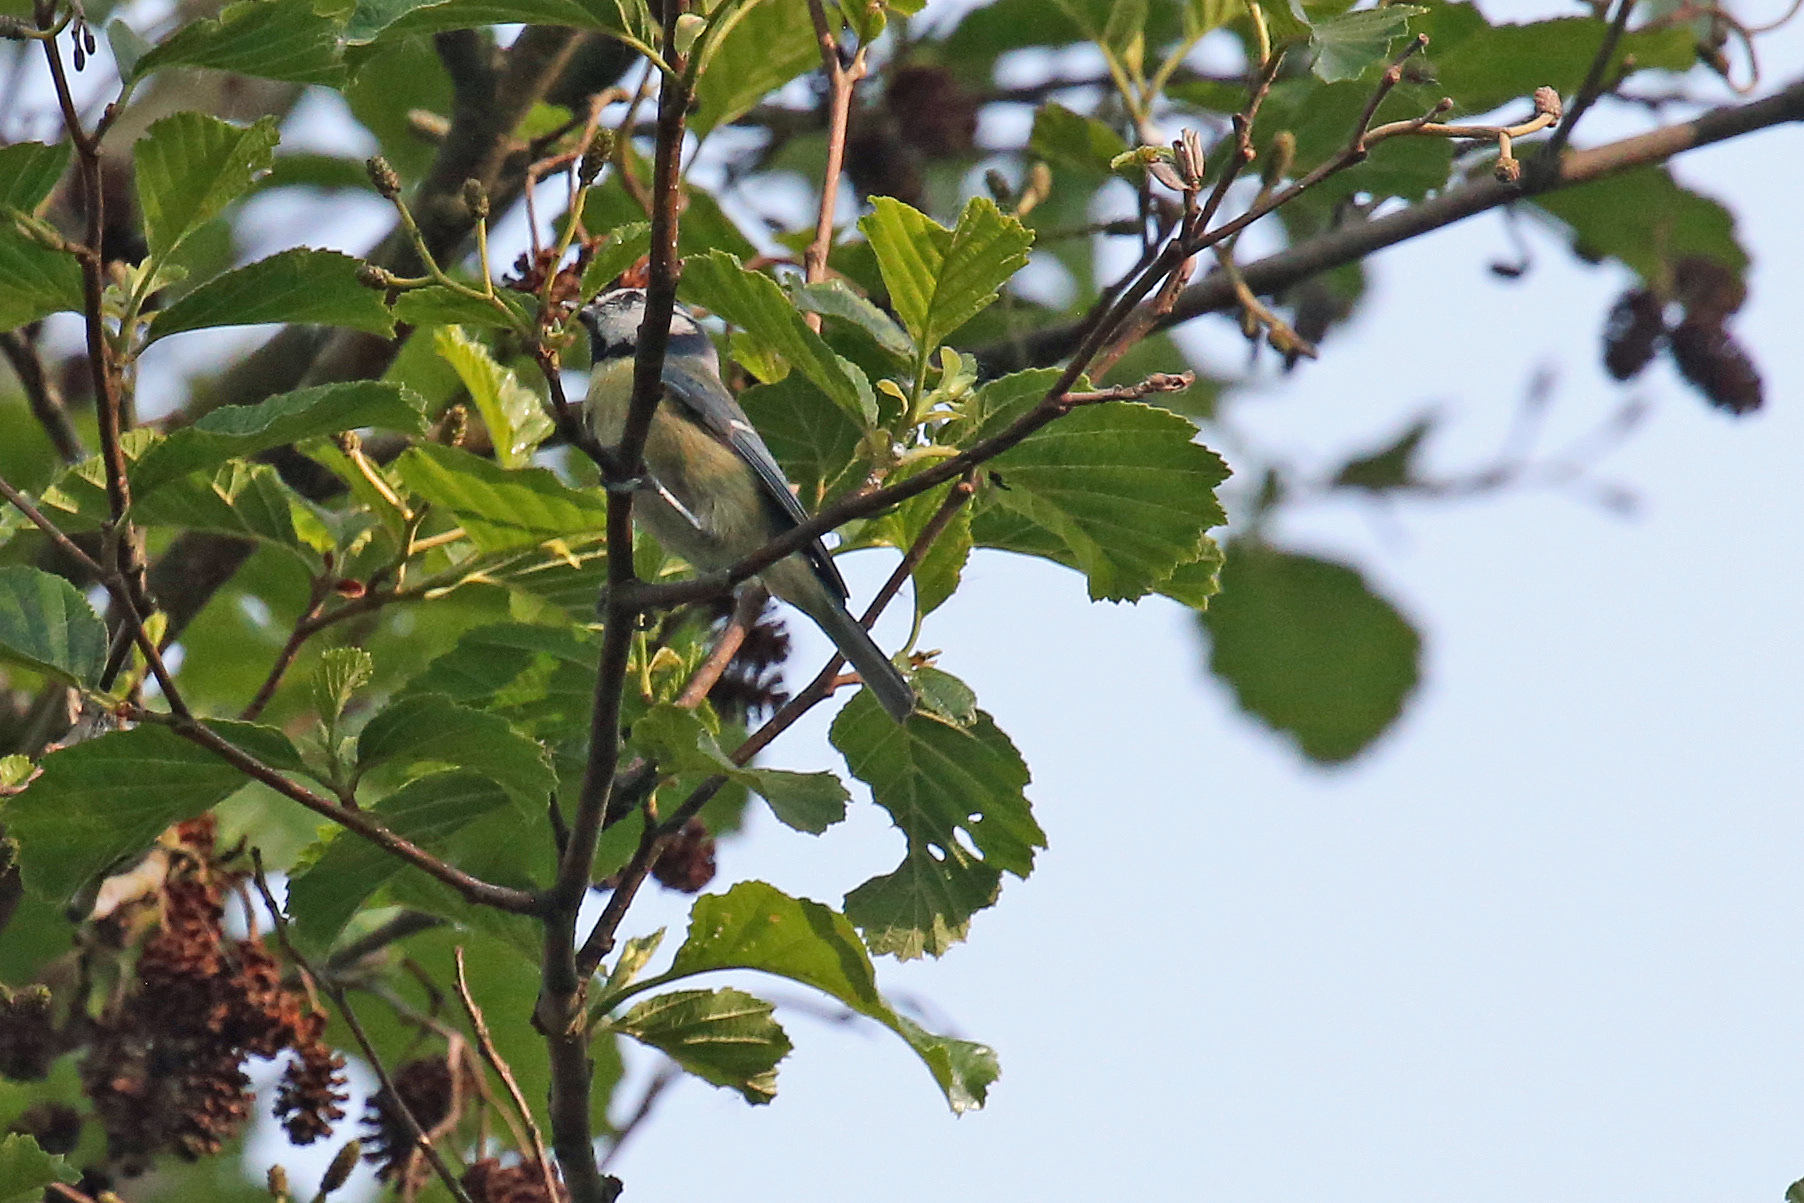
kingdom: Animalia
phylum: Chordata
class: Aves
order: Passeriformes
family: Paridae
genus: Cyanistes
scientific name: Cyanistes caeruleus
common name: Eurasian blue tit
